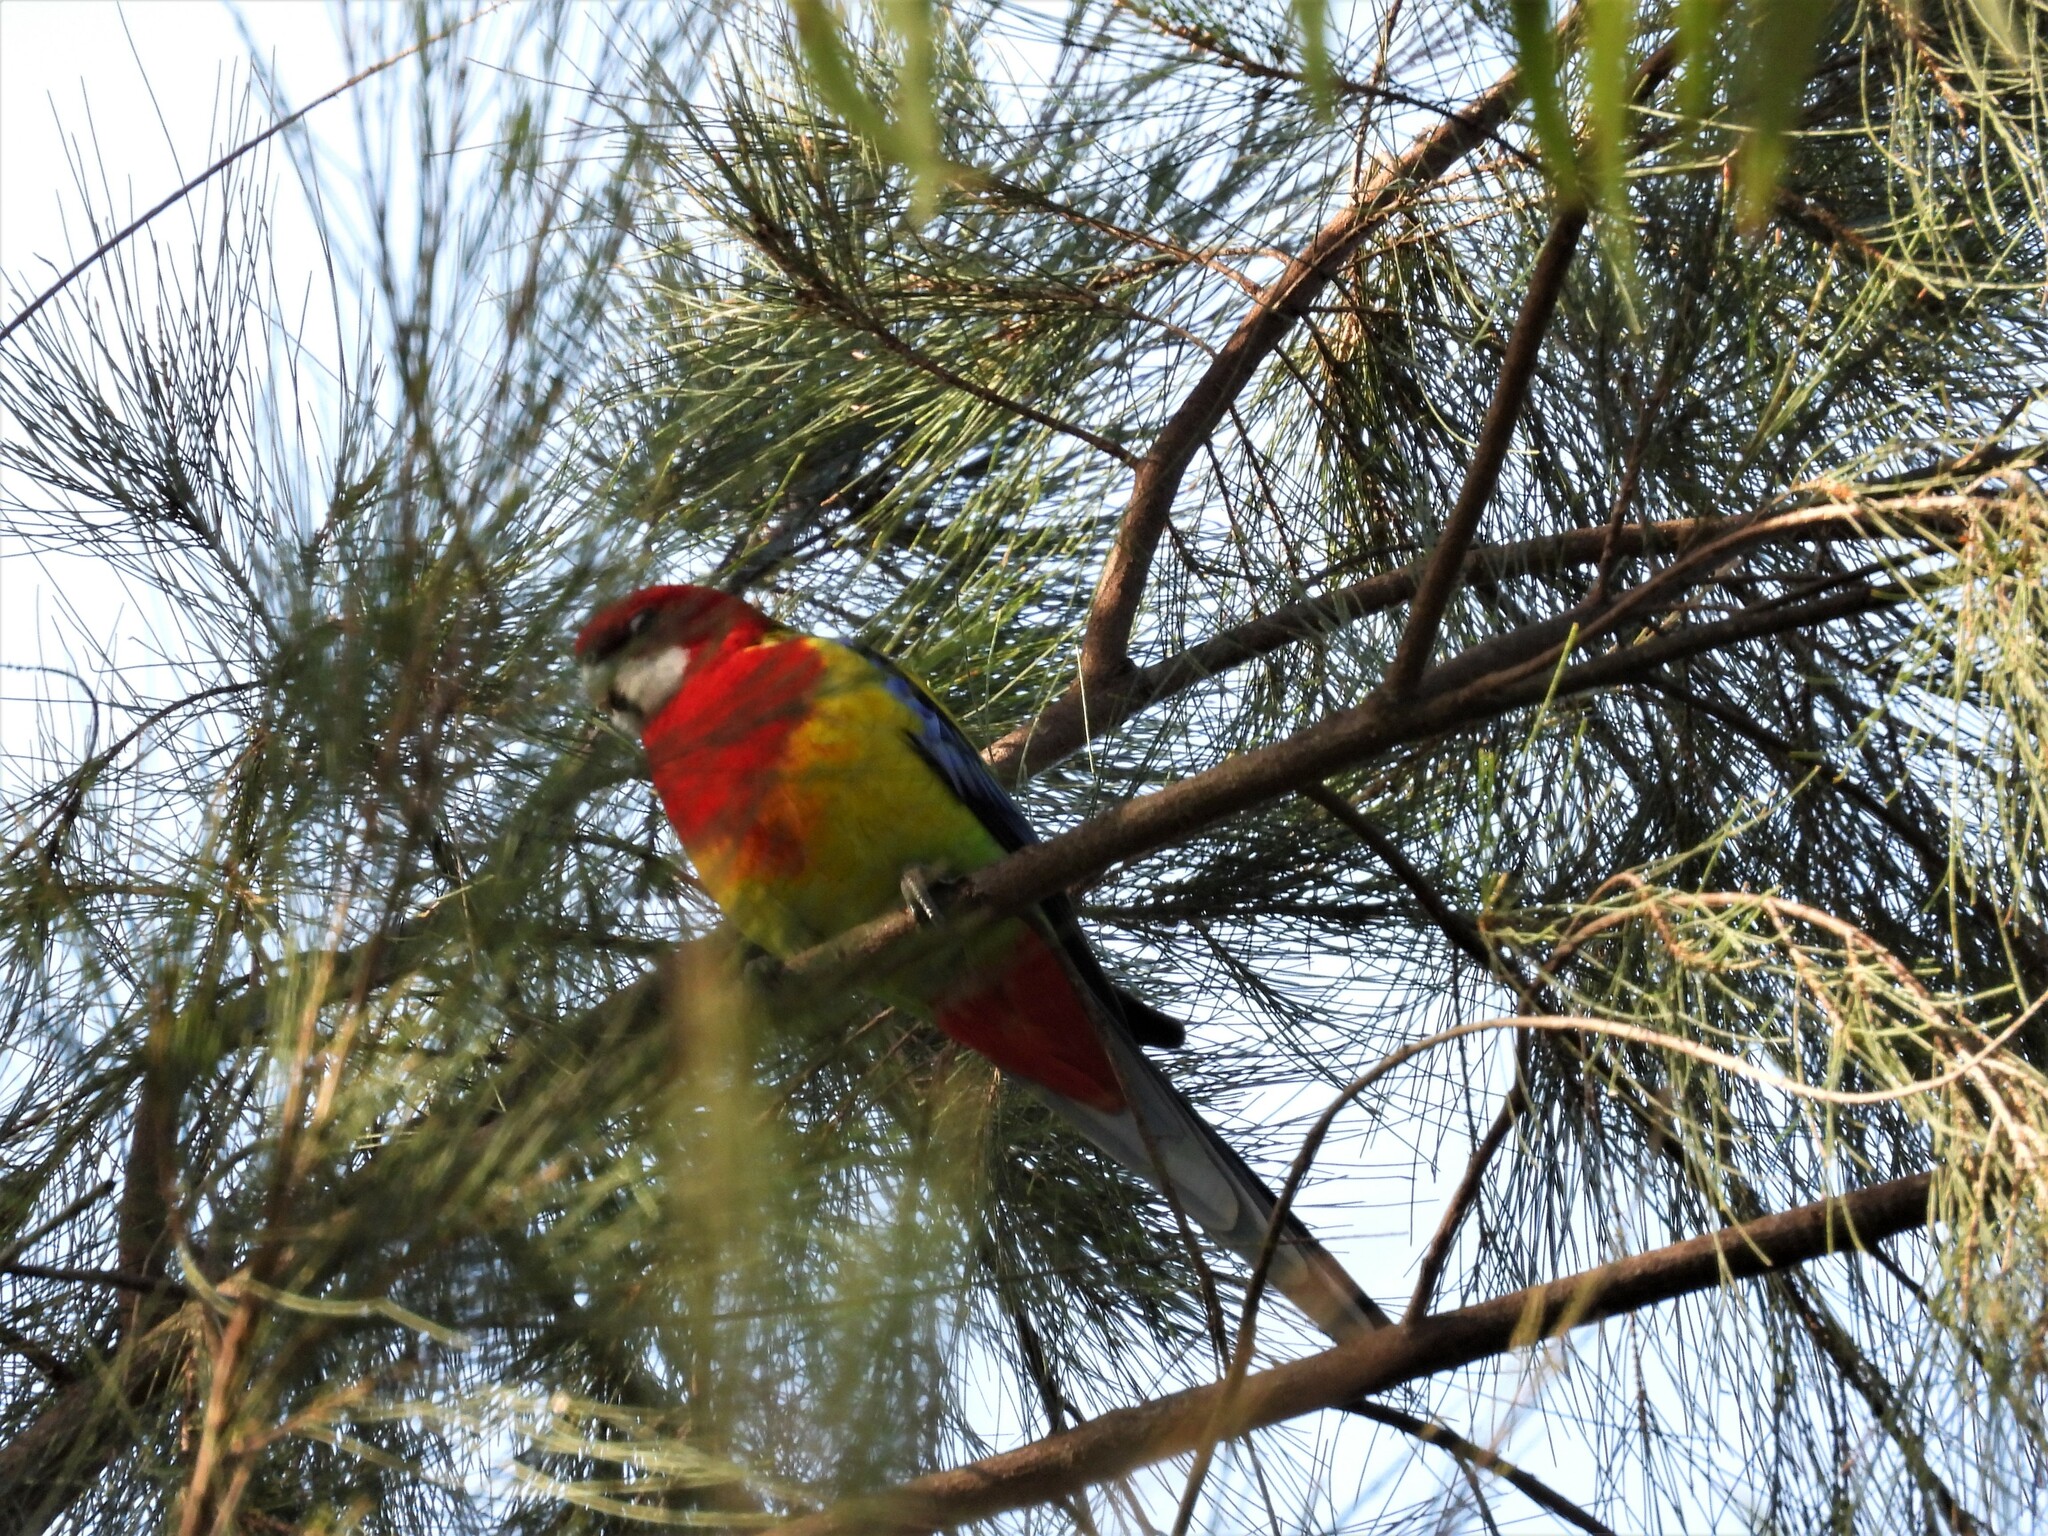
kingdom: Animalia
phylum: Chordata
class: Aves
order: Psittaciformes
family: Psittacidae
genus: Platycercus
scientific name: Platycercus eximius
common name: Eastern rosella
